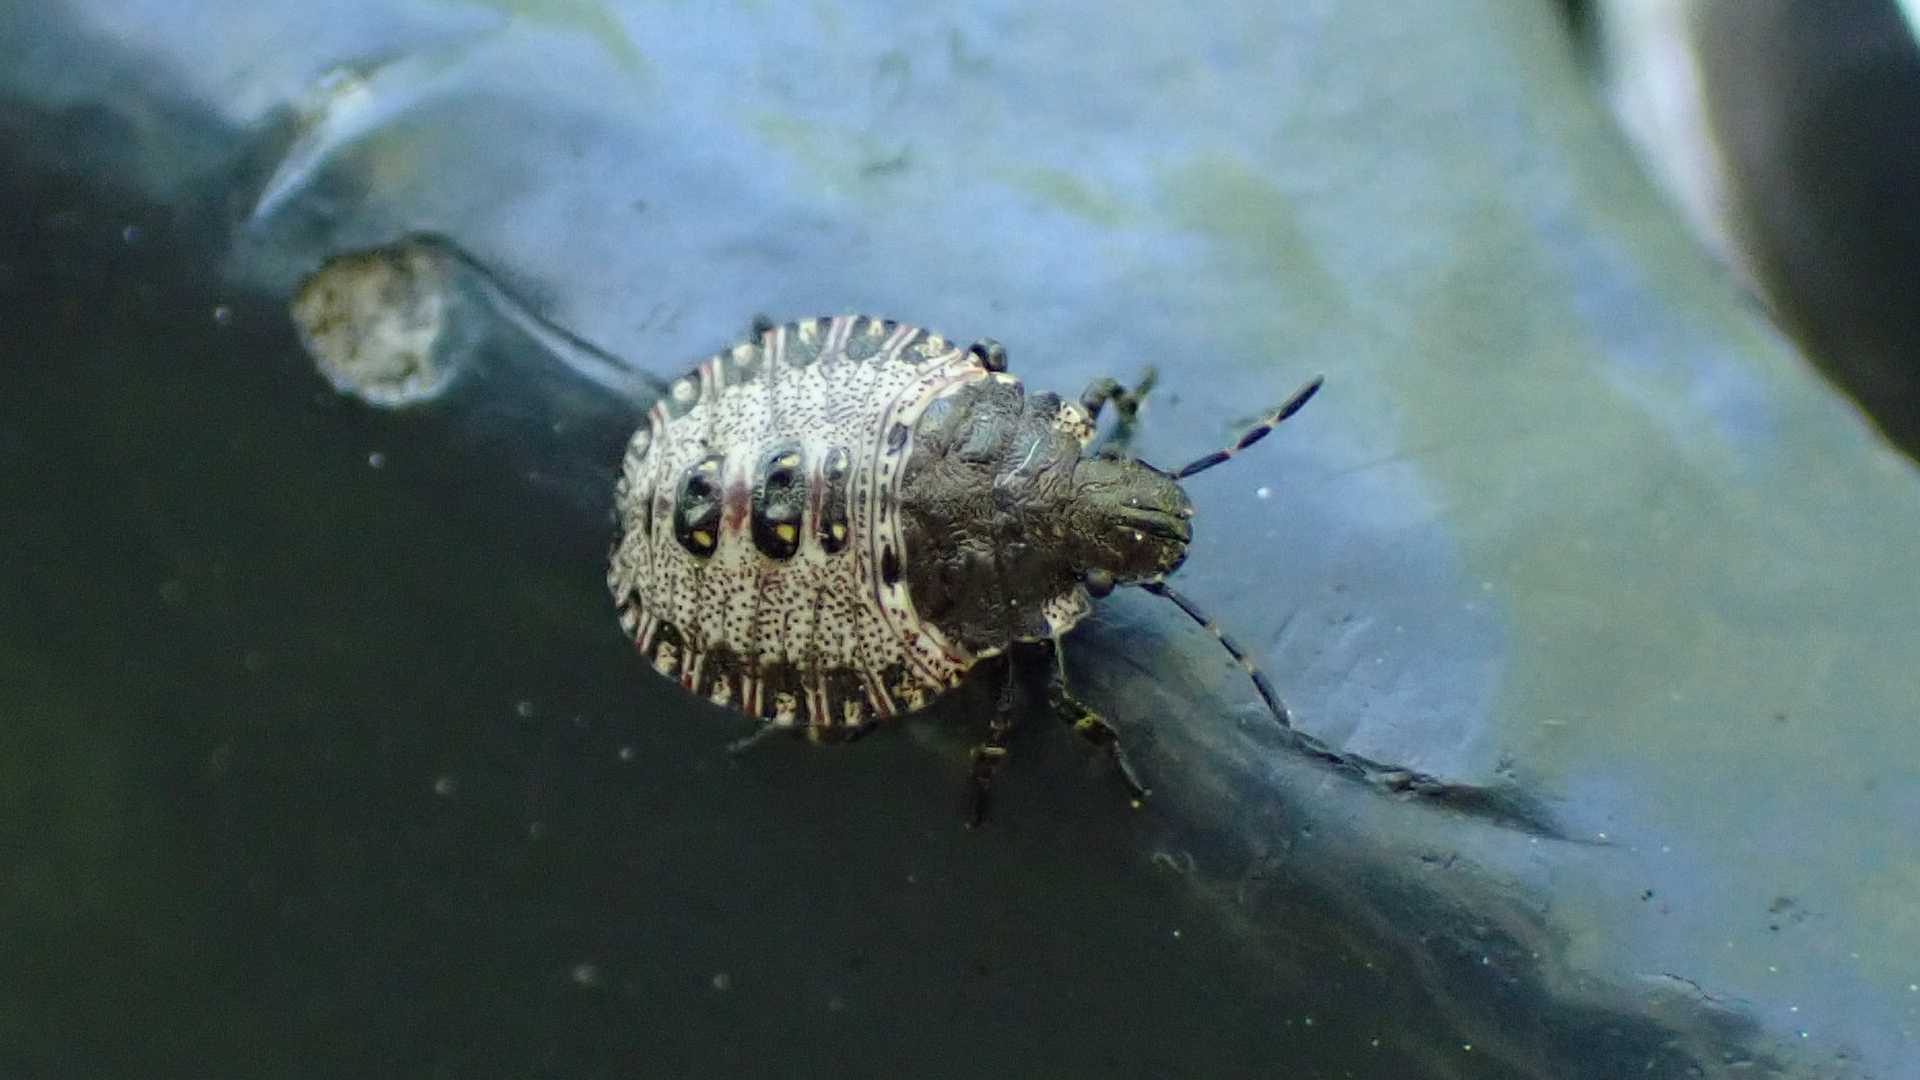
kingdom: Animalia
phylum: Arthropoda
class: Insecta
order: Hemiptera
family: Pentatomidae
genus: Pentatoma
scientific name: Pentatoma rufipes
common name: Forest bug
